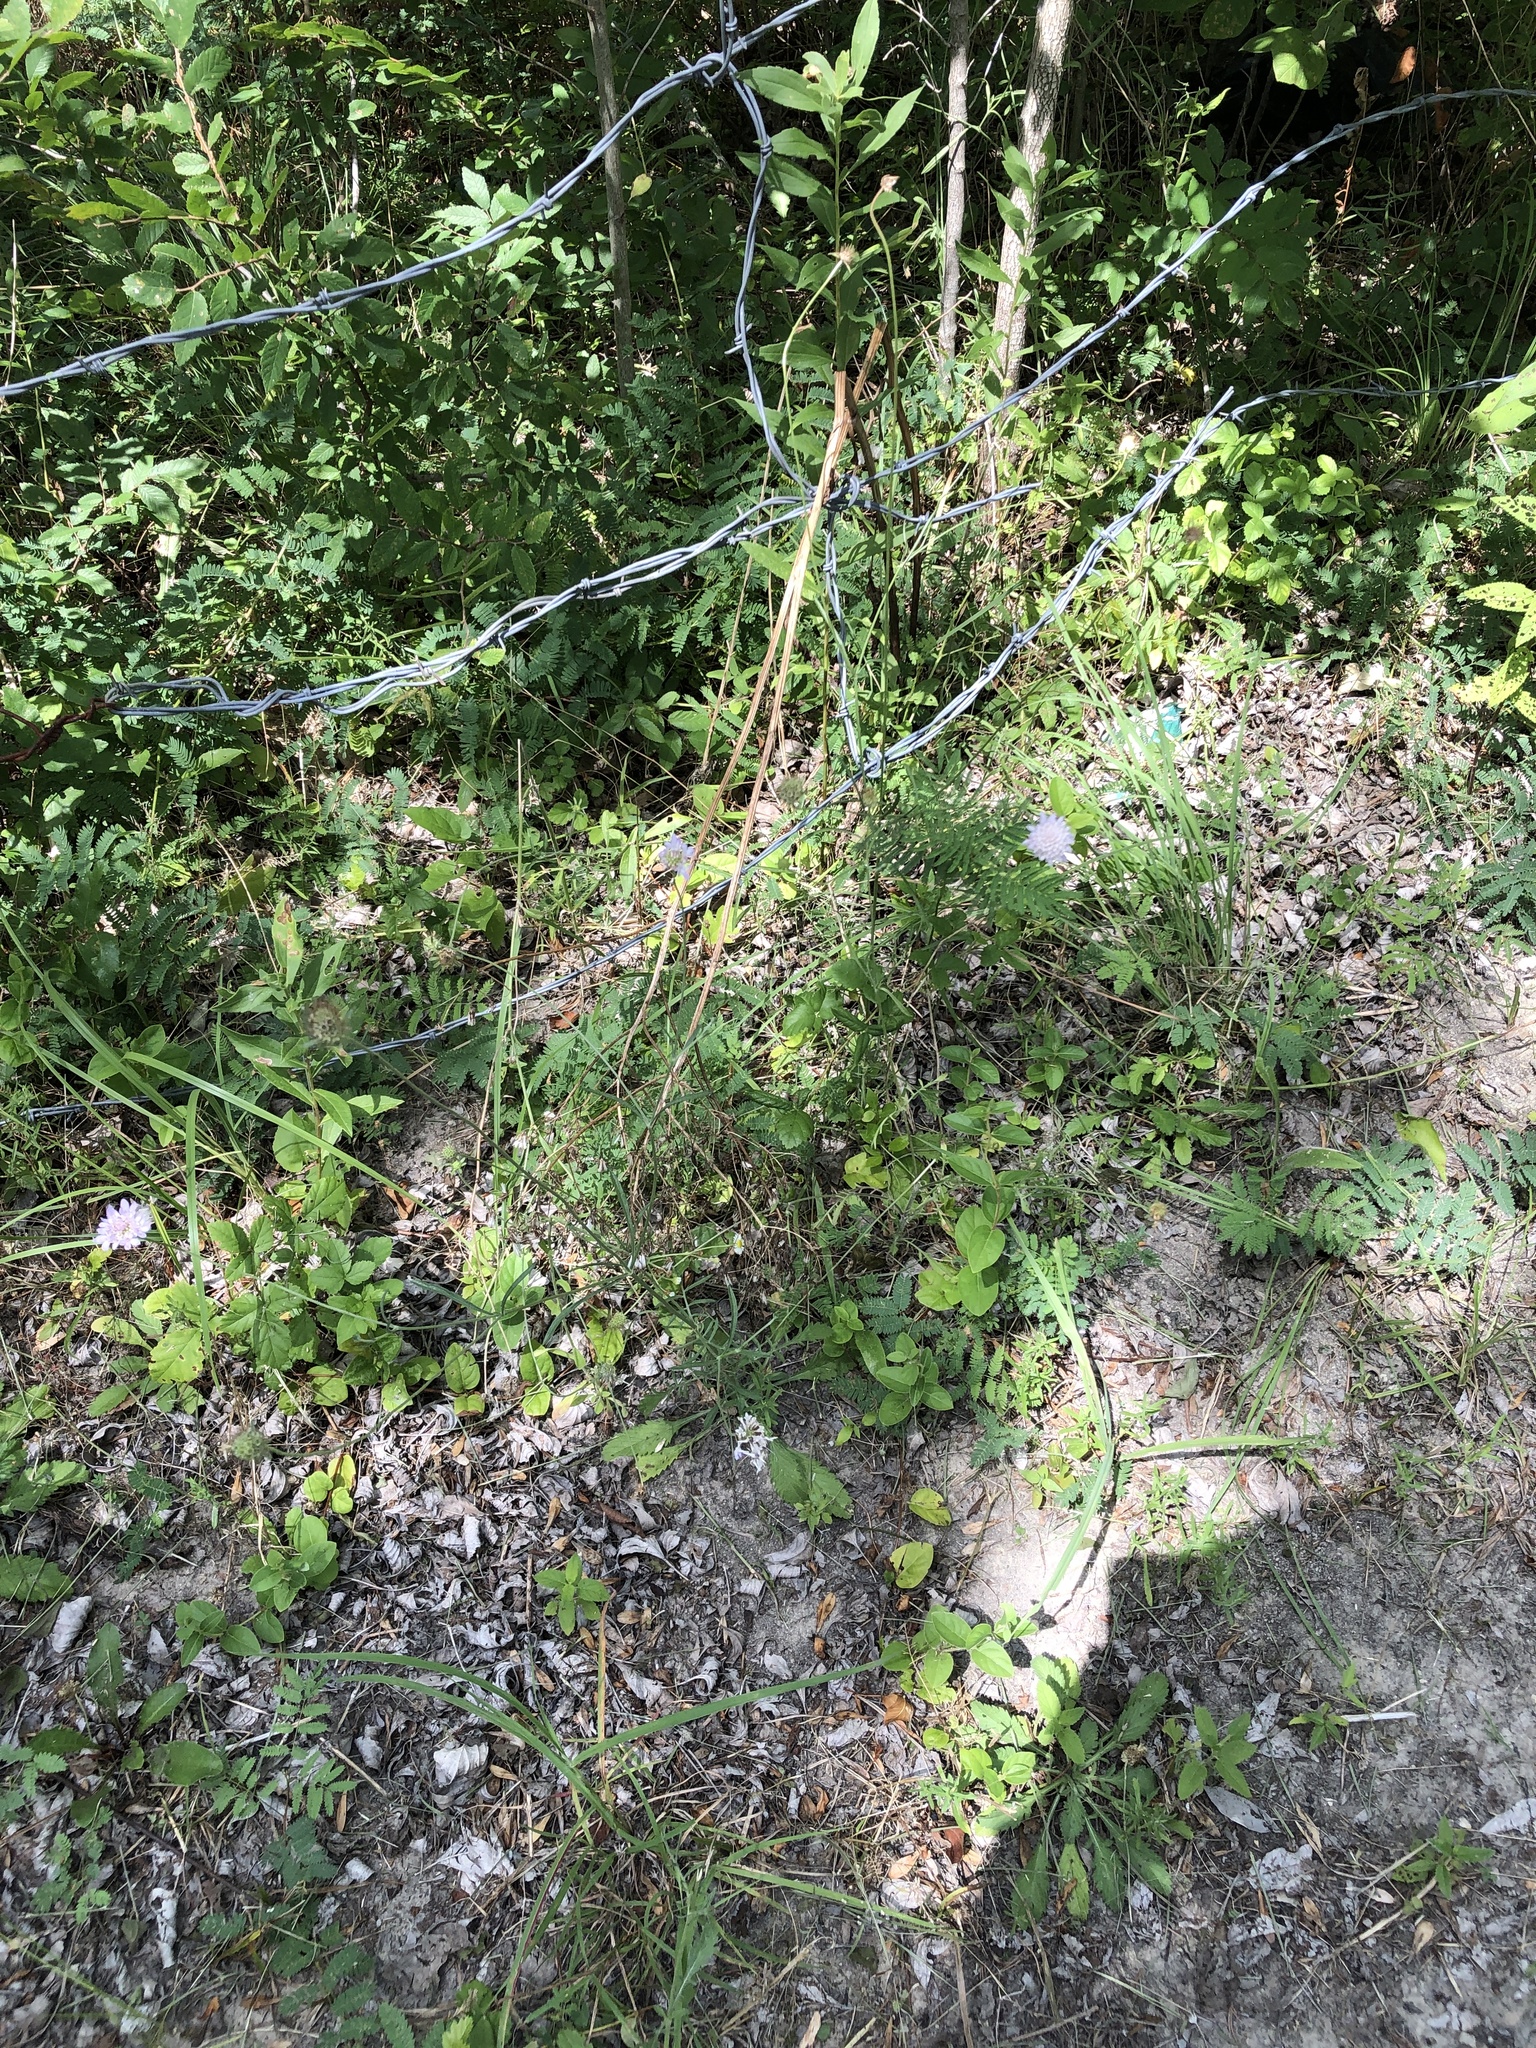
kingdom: Plantae
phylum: Tracheophyta
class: Magnoliopsida
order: Dipsacales
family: Caprifoliaceae
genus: Sixalix
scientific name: Sixalix atropurpurea
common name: Sweet scabious
